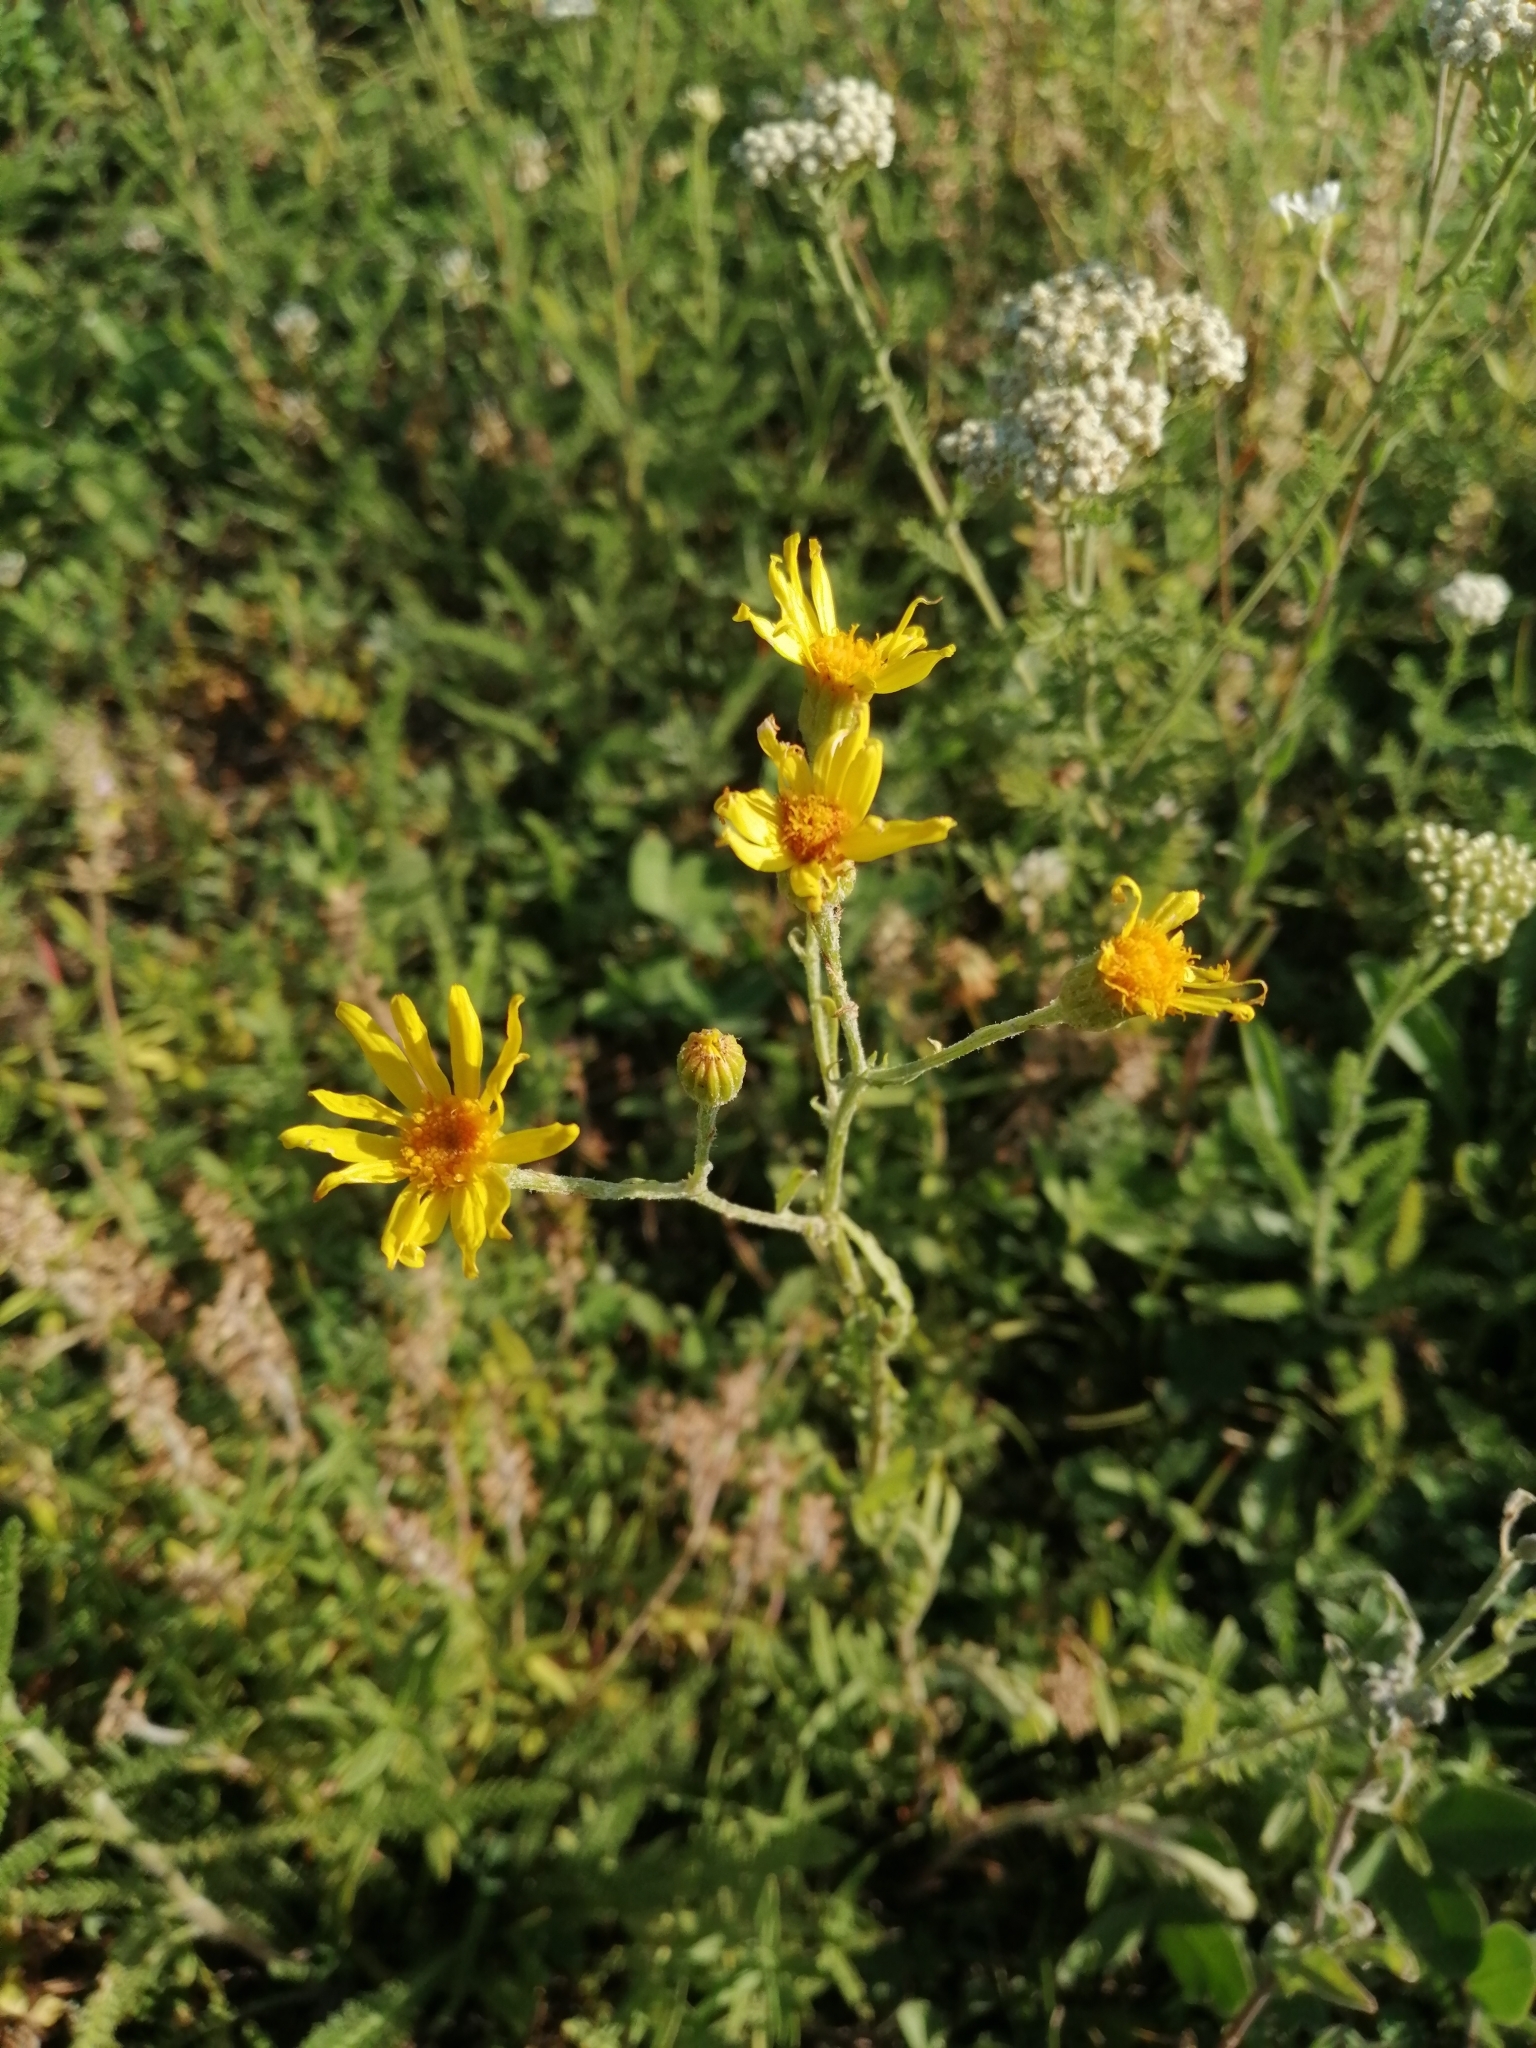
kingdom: Plantae
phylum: Tracheophyta
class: Magnoliopsida
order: Asterales
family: Asteraceae
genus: Jacobaea
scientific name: Jacobaea vulgaris
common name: Stinking willie
